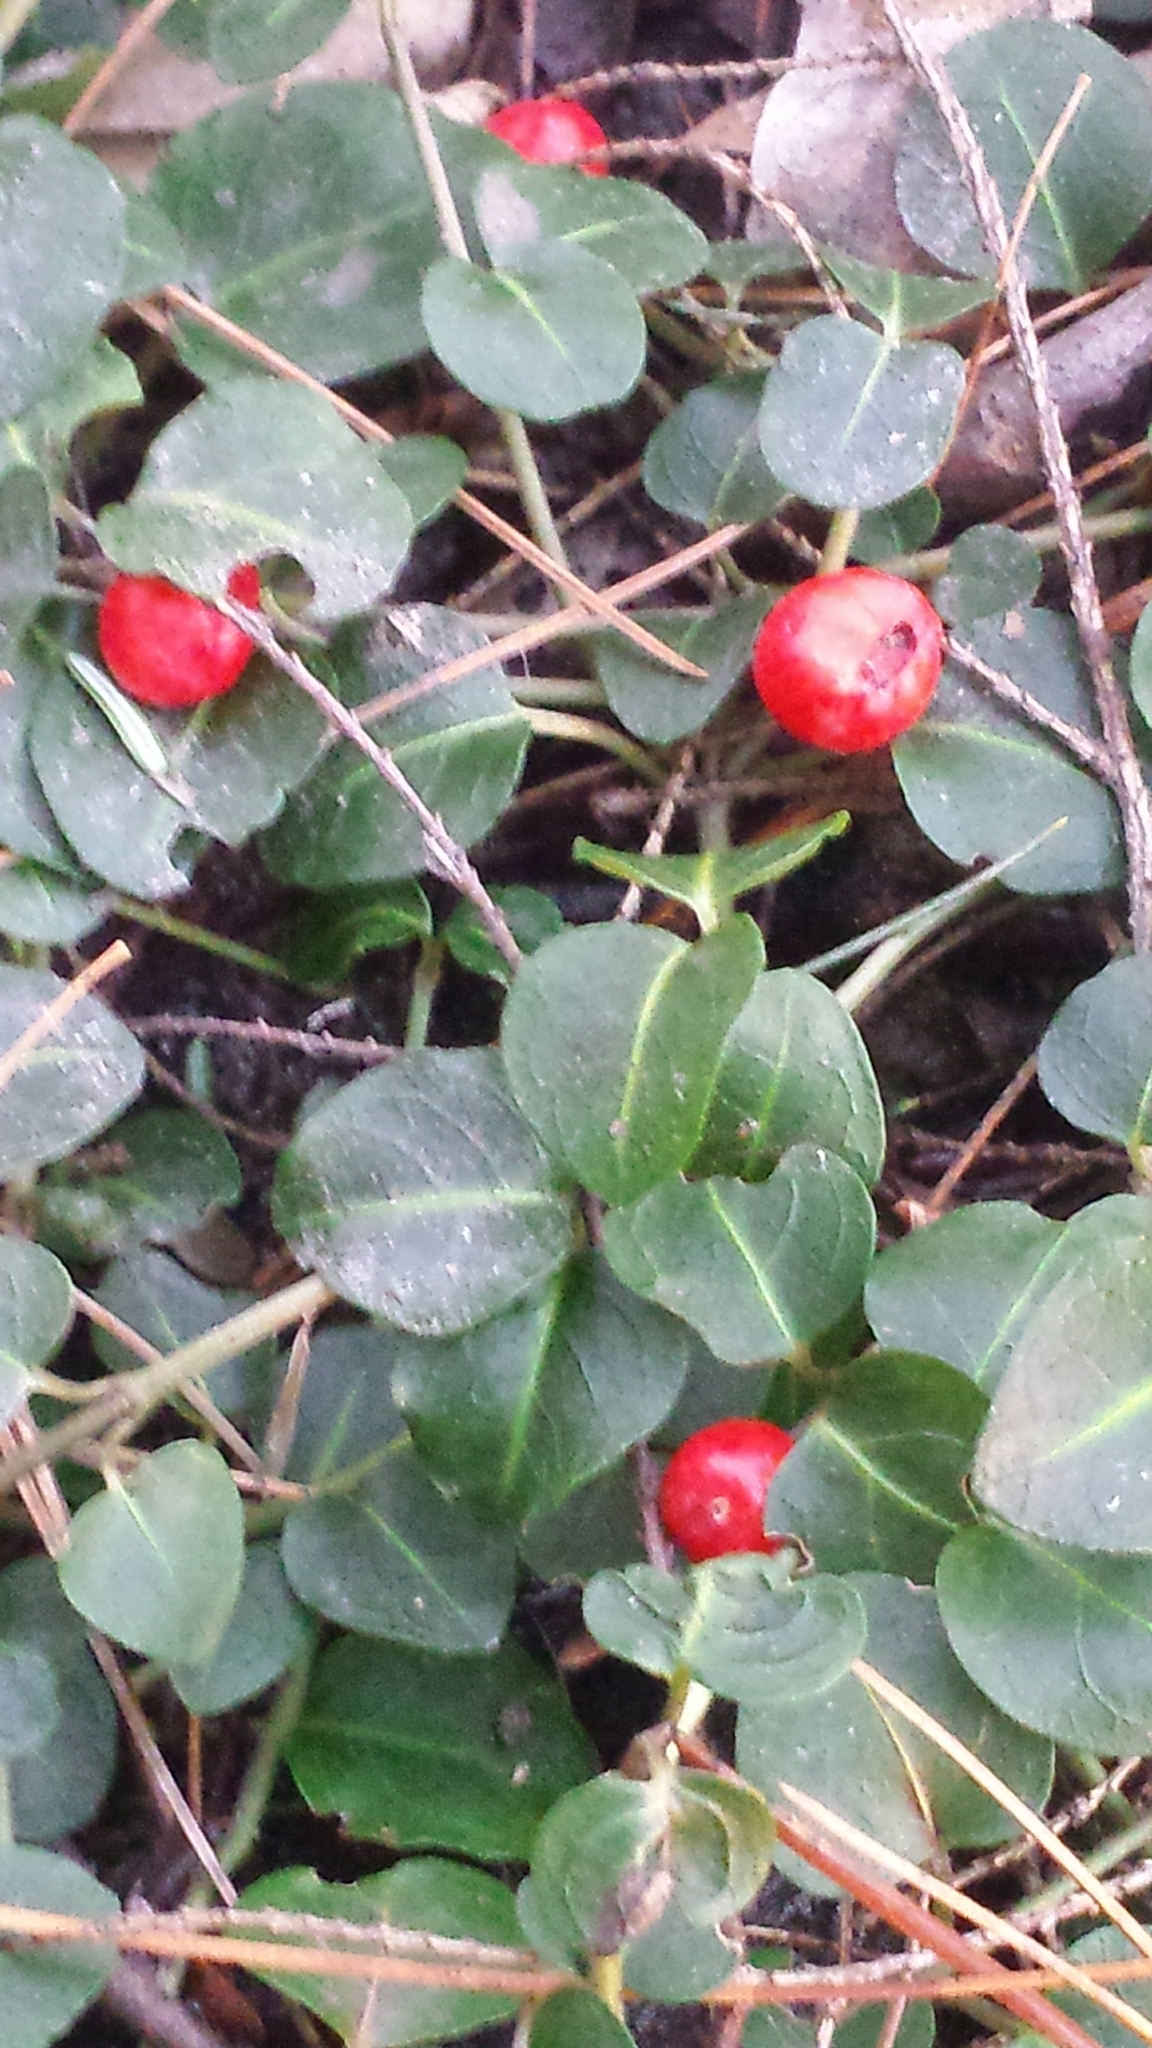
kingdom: Plantae
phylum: Tracheophyta
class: Magnoliopsida
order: Gentianales
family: Rubiaceae
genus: Mitchella
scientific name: Mitchella repens
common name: Partridge-berry
